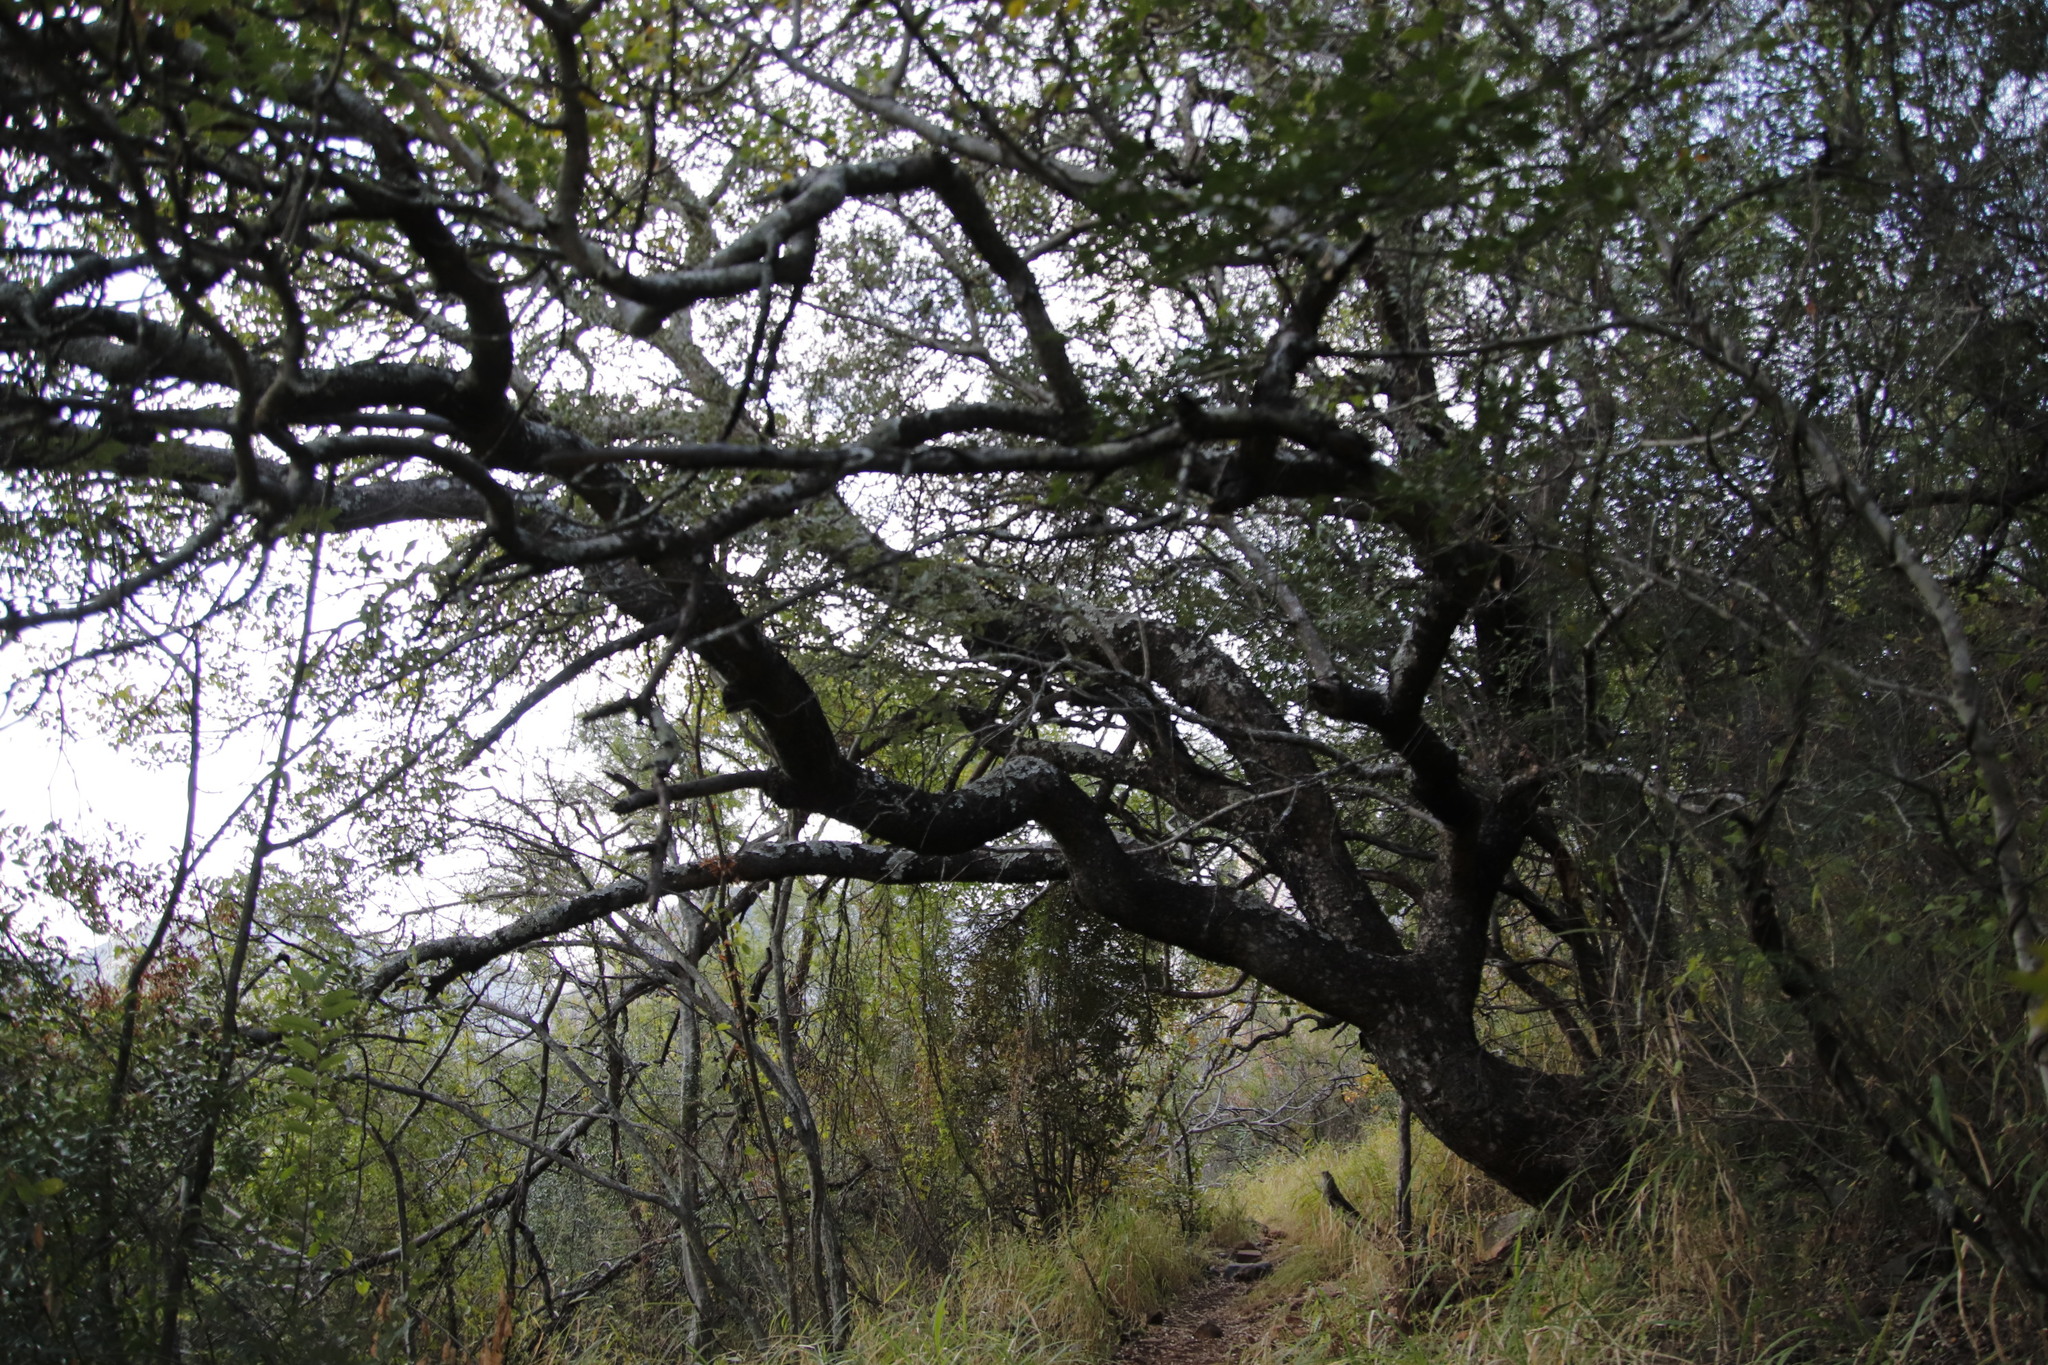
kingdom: Plantae
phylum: Tracheophyta
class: Magnoliopsida
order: Sapindales
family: Anacardiaceae
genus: Sclerocarya
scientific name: Sclerocarya birrea
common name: Marula
